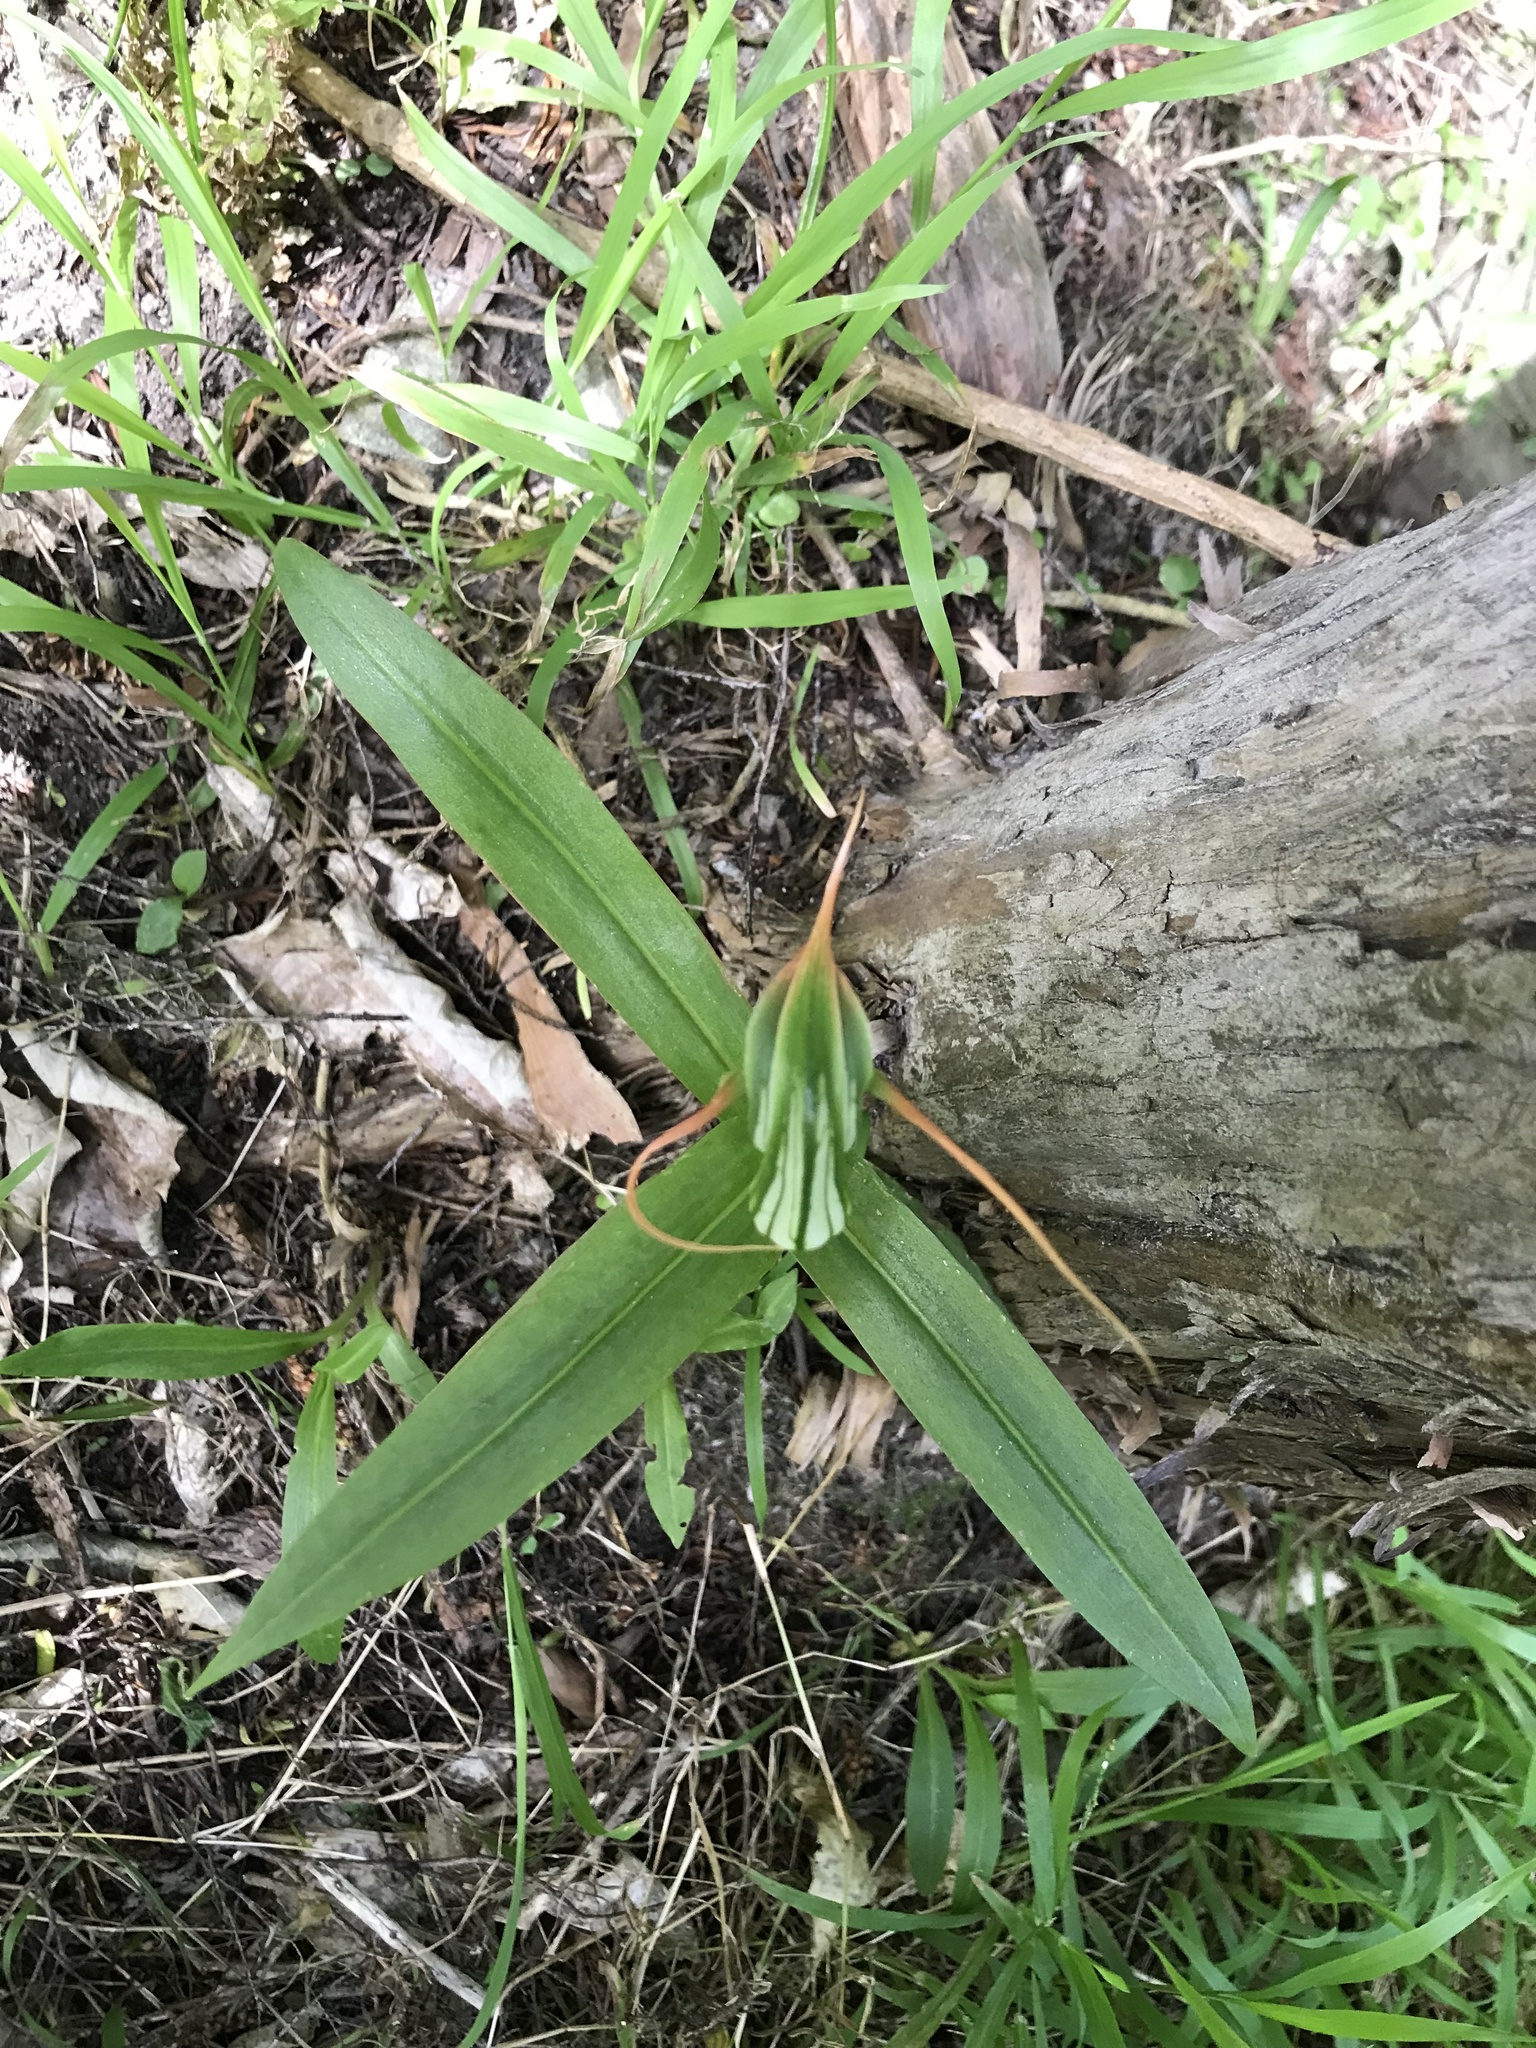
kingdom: Plantae
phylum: Tracheophyta
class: Liliopsida
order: Asparagales
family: Orchidaceae
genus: Pterostylis
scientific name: Pterostylis banksii
